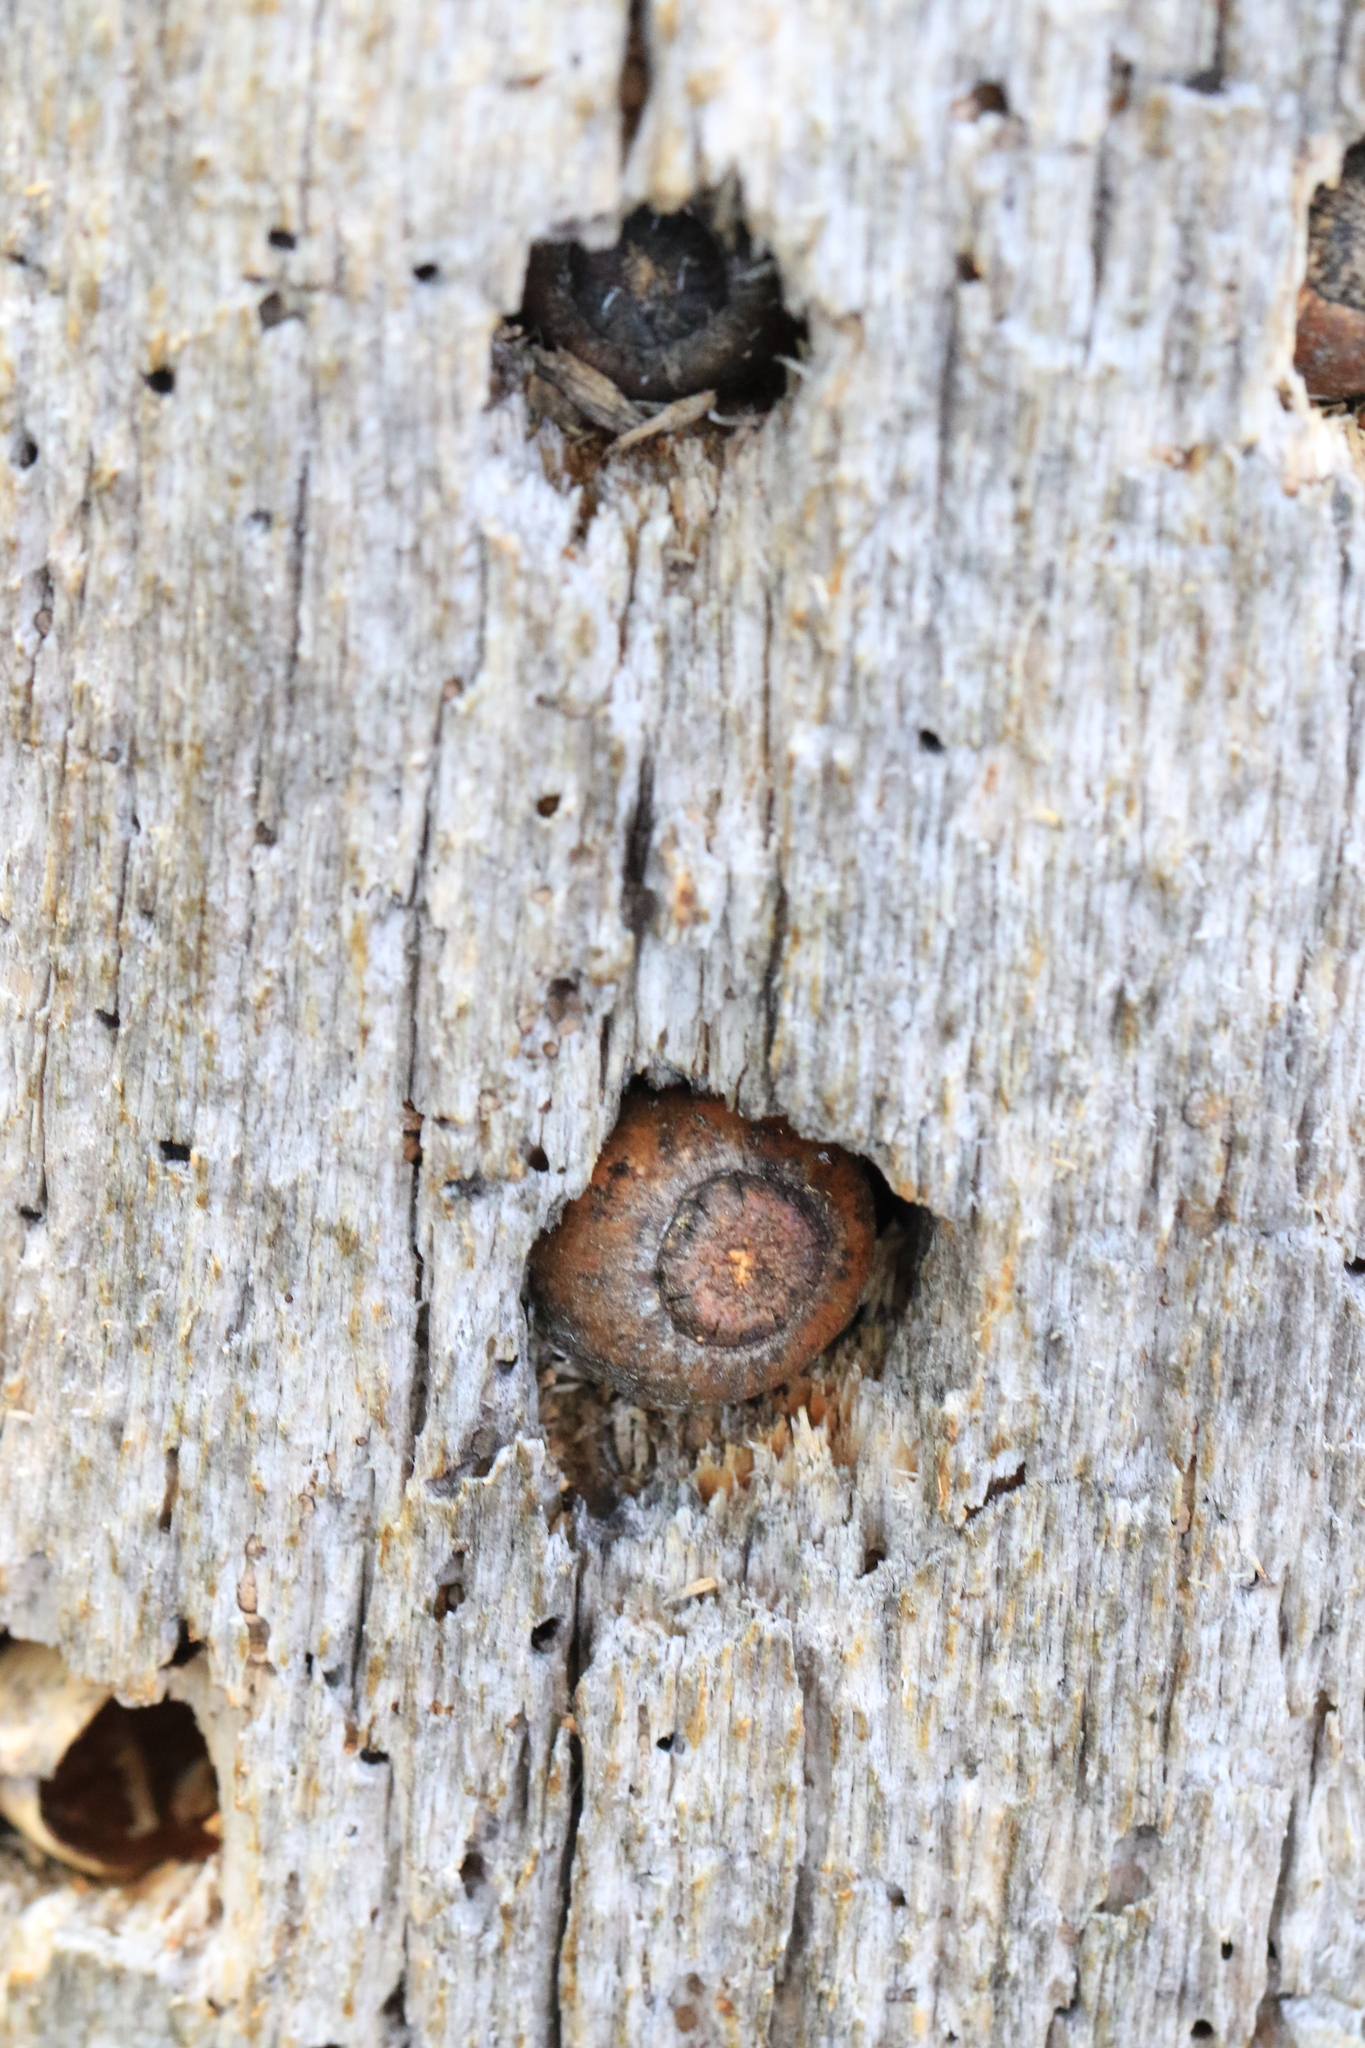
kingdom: Animalia
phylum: Chordata
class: Aves
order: Piciformes
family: Picidae
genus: Melanerpes
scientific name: Melanerpes formicivorus
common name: Acorn woodpecker
